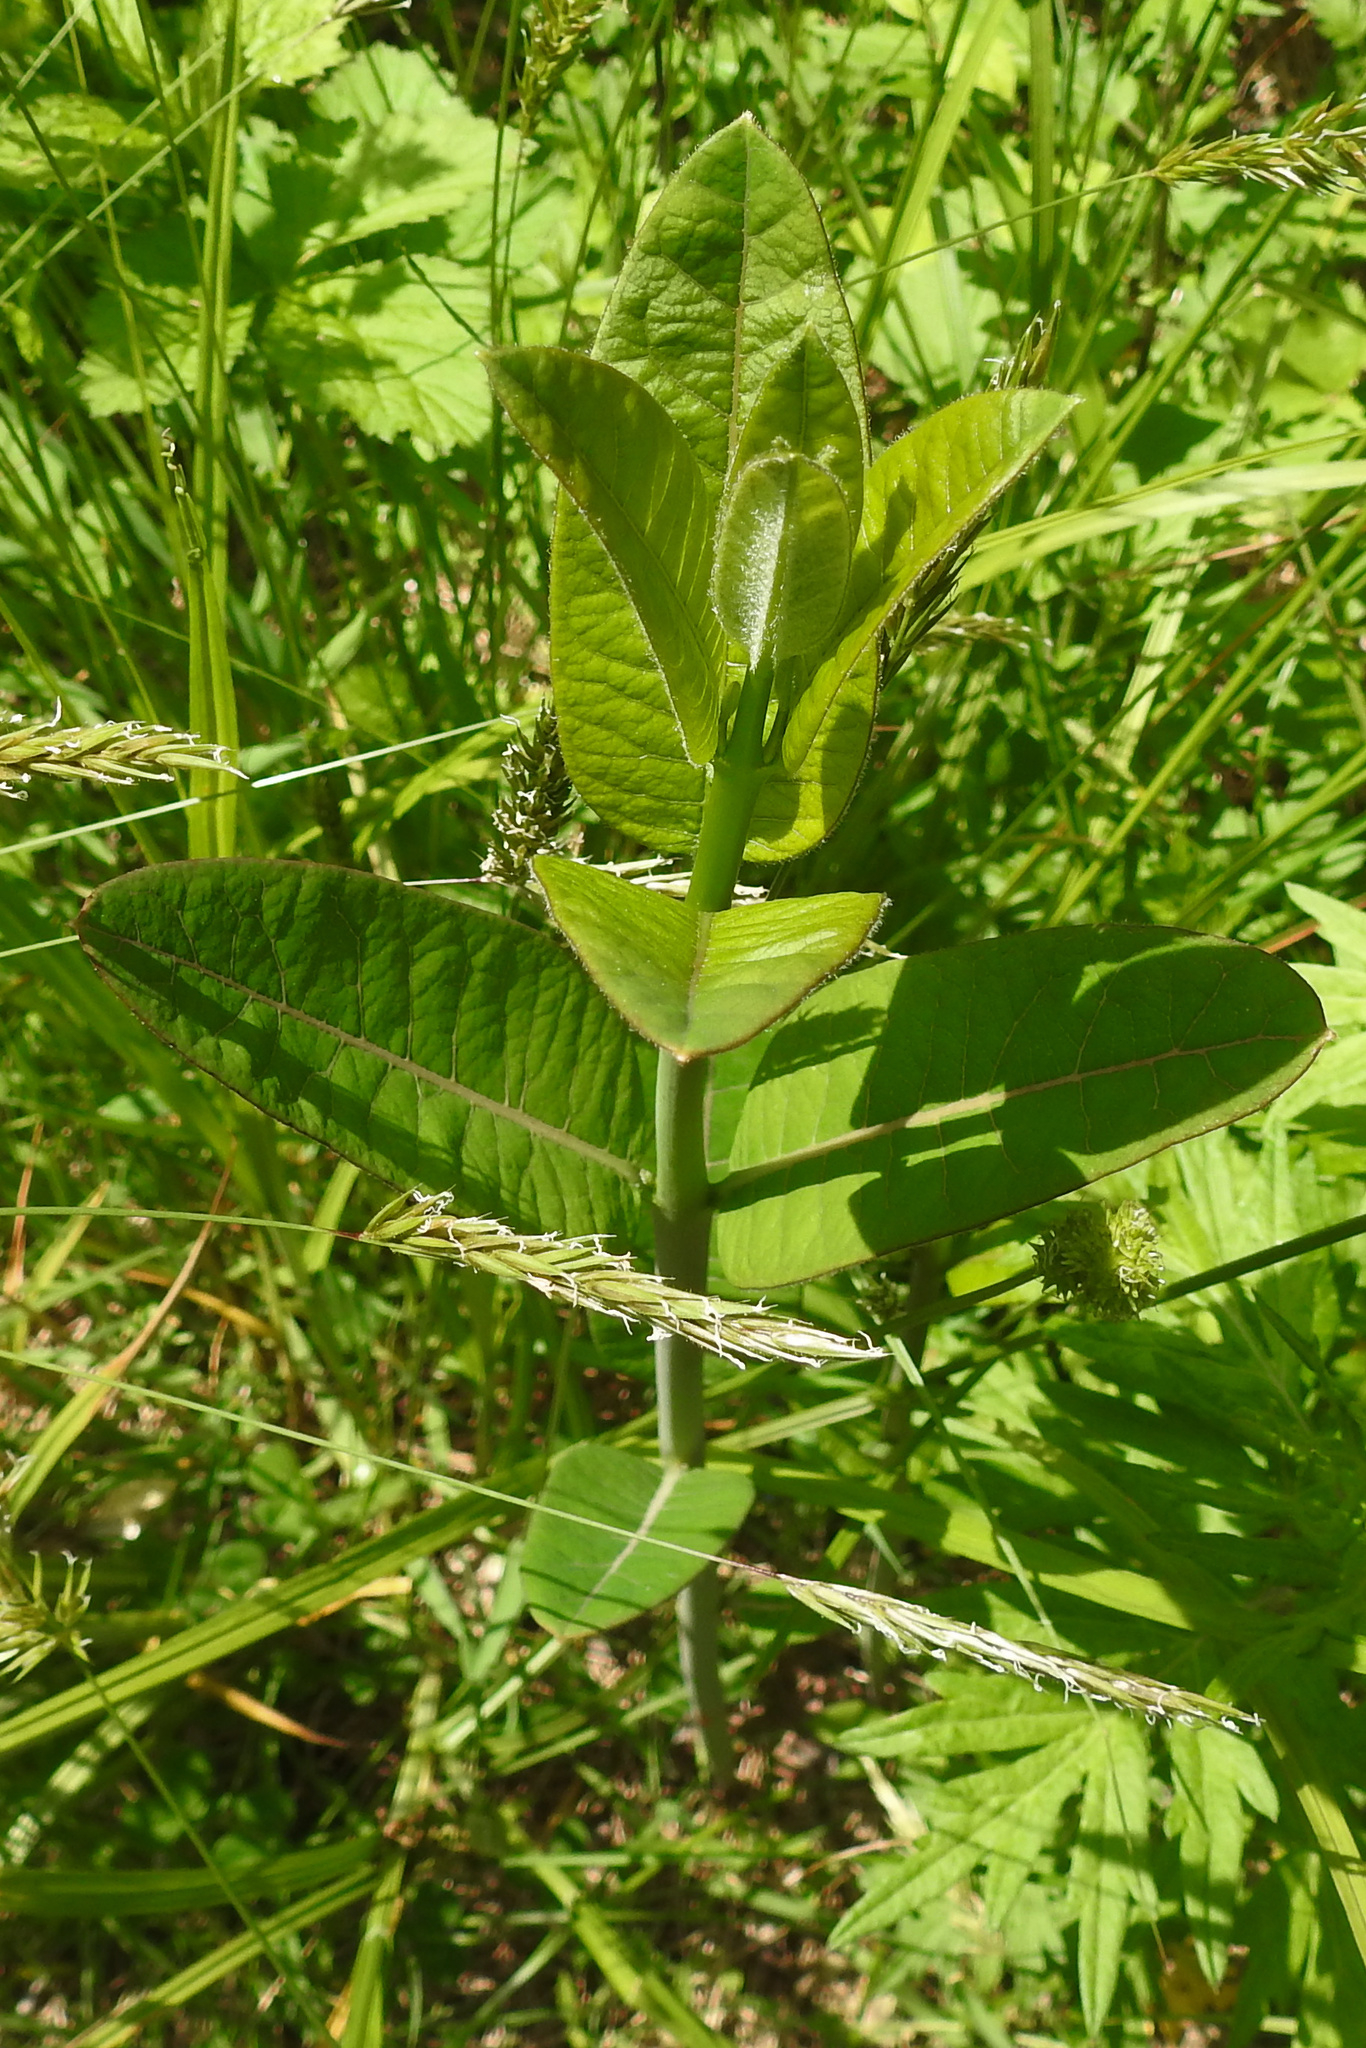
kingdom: Plantae
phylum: Tracheophyta
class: Magnoliopsida
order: Gentianales
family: Apocynaceae
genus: Asclepias
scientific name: Asclepias syriaca
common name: Common milkweed
